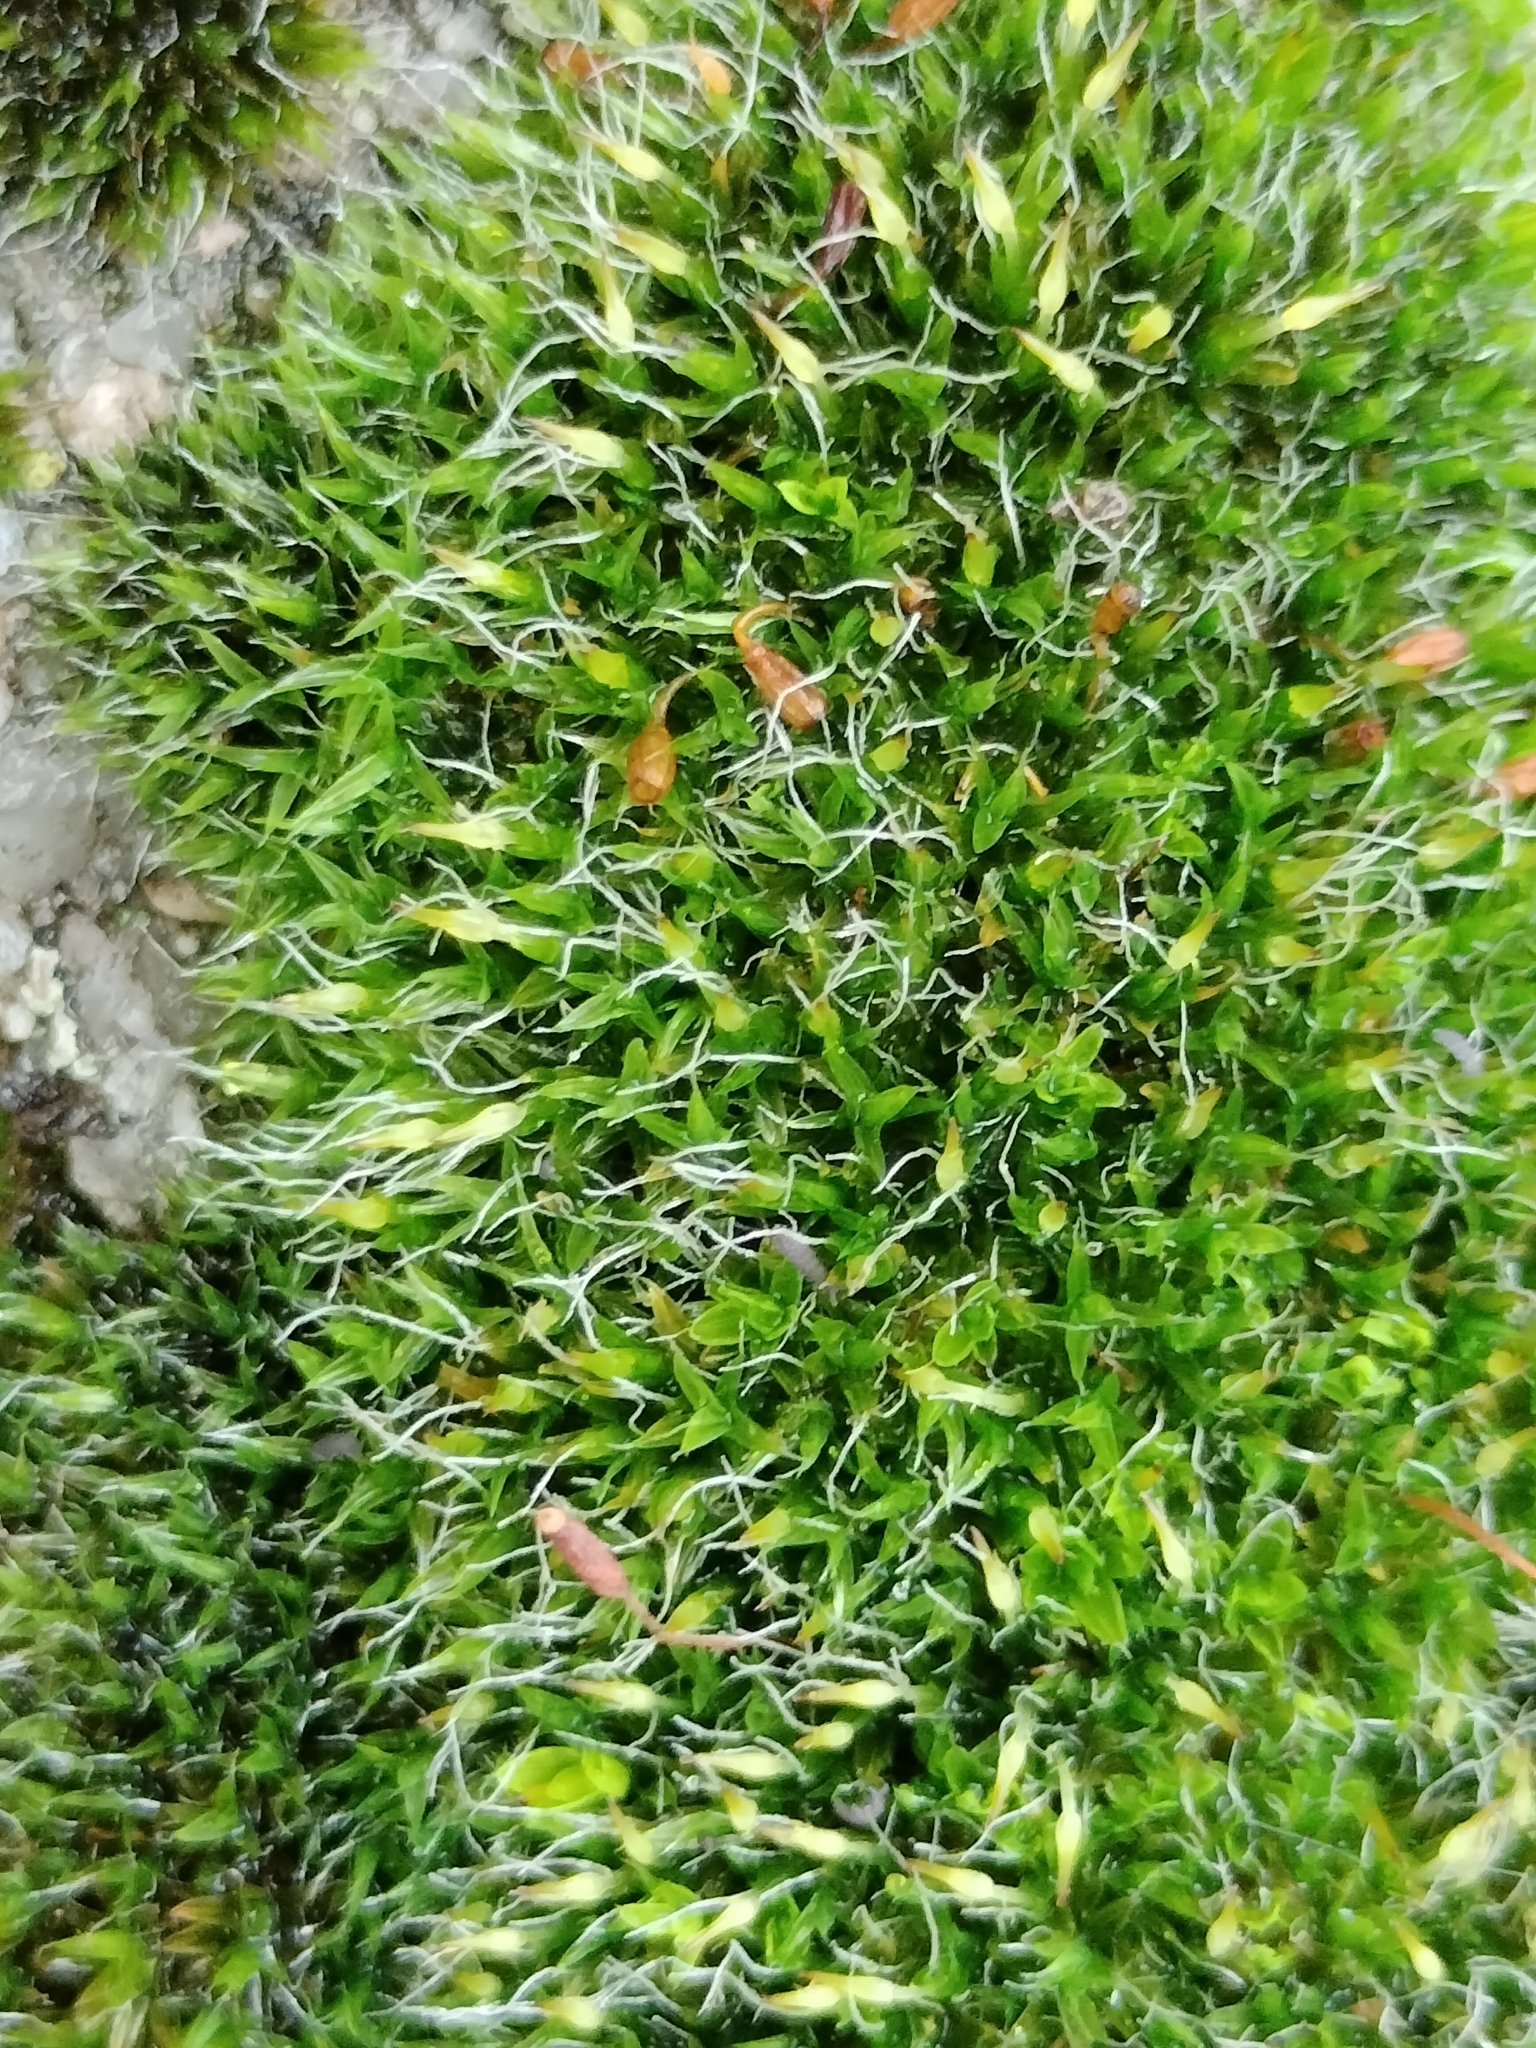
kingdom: Plantae
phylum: Bryophyta
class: Bryopsida
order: Grimmiales
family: Grimmiaceae
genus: Grimmia
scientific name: Grimmia pulvinata
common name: Grey-cushioned grimmia
